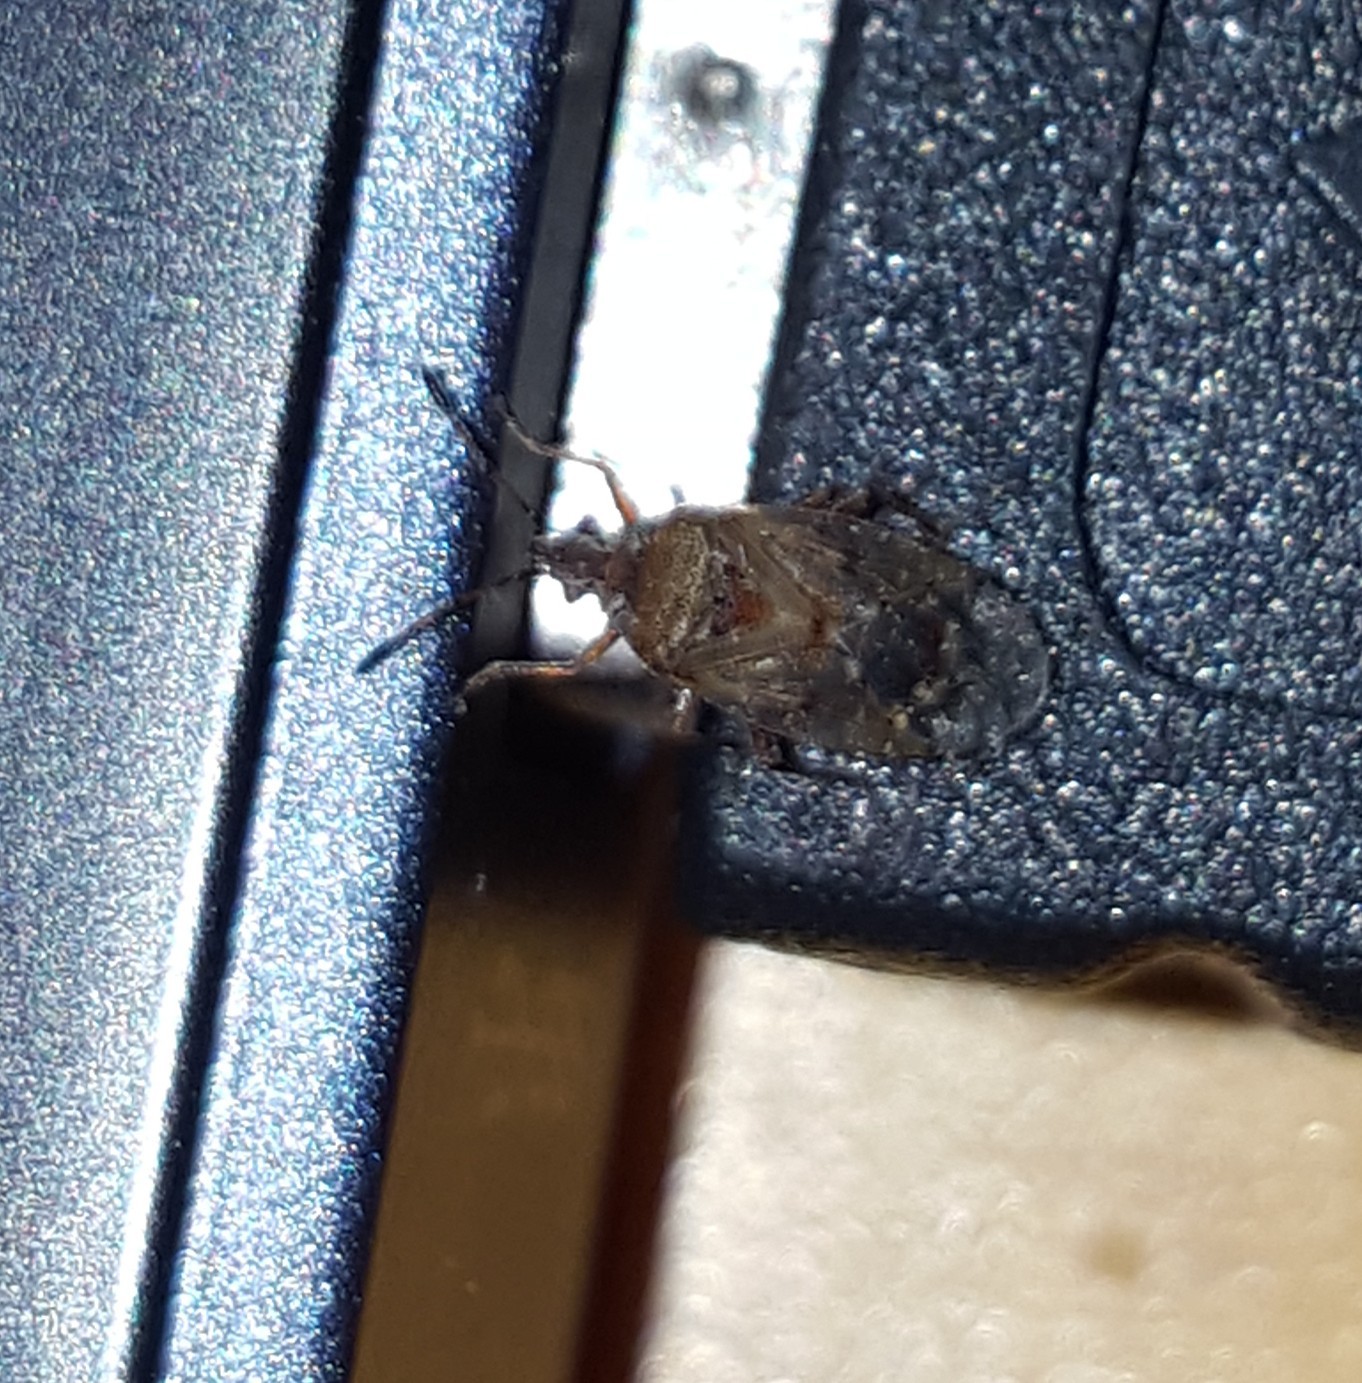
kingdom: Animalia
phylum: Arthropoda
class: Insecta
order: Hemiptera
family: Lygaeidae
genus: Kleidocerys
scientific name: Kleidocerys resedae
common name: Birch catkin bug
